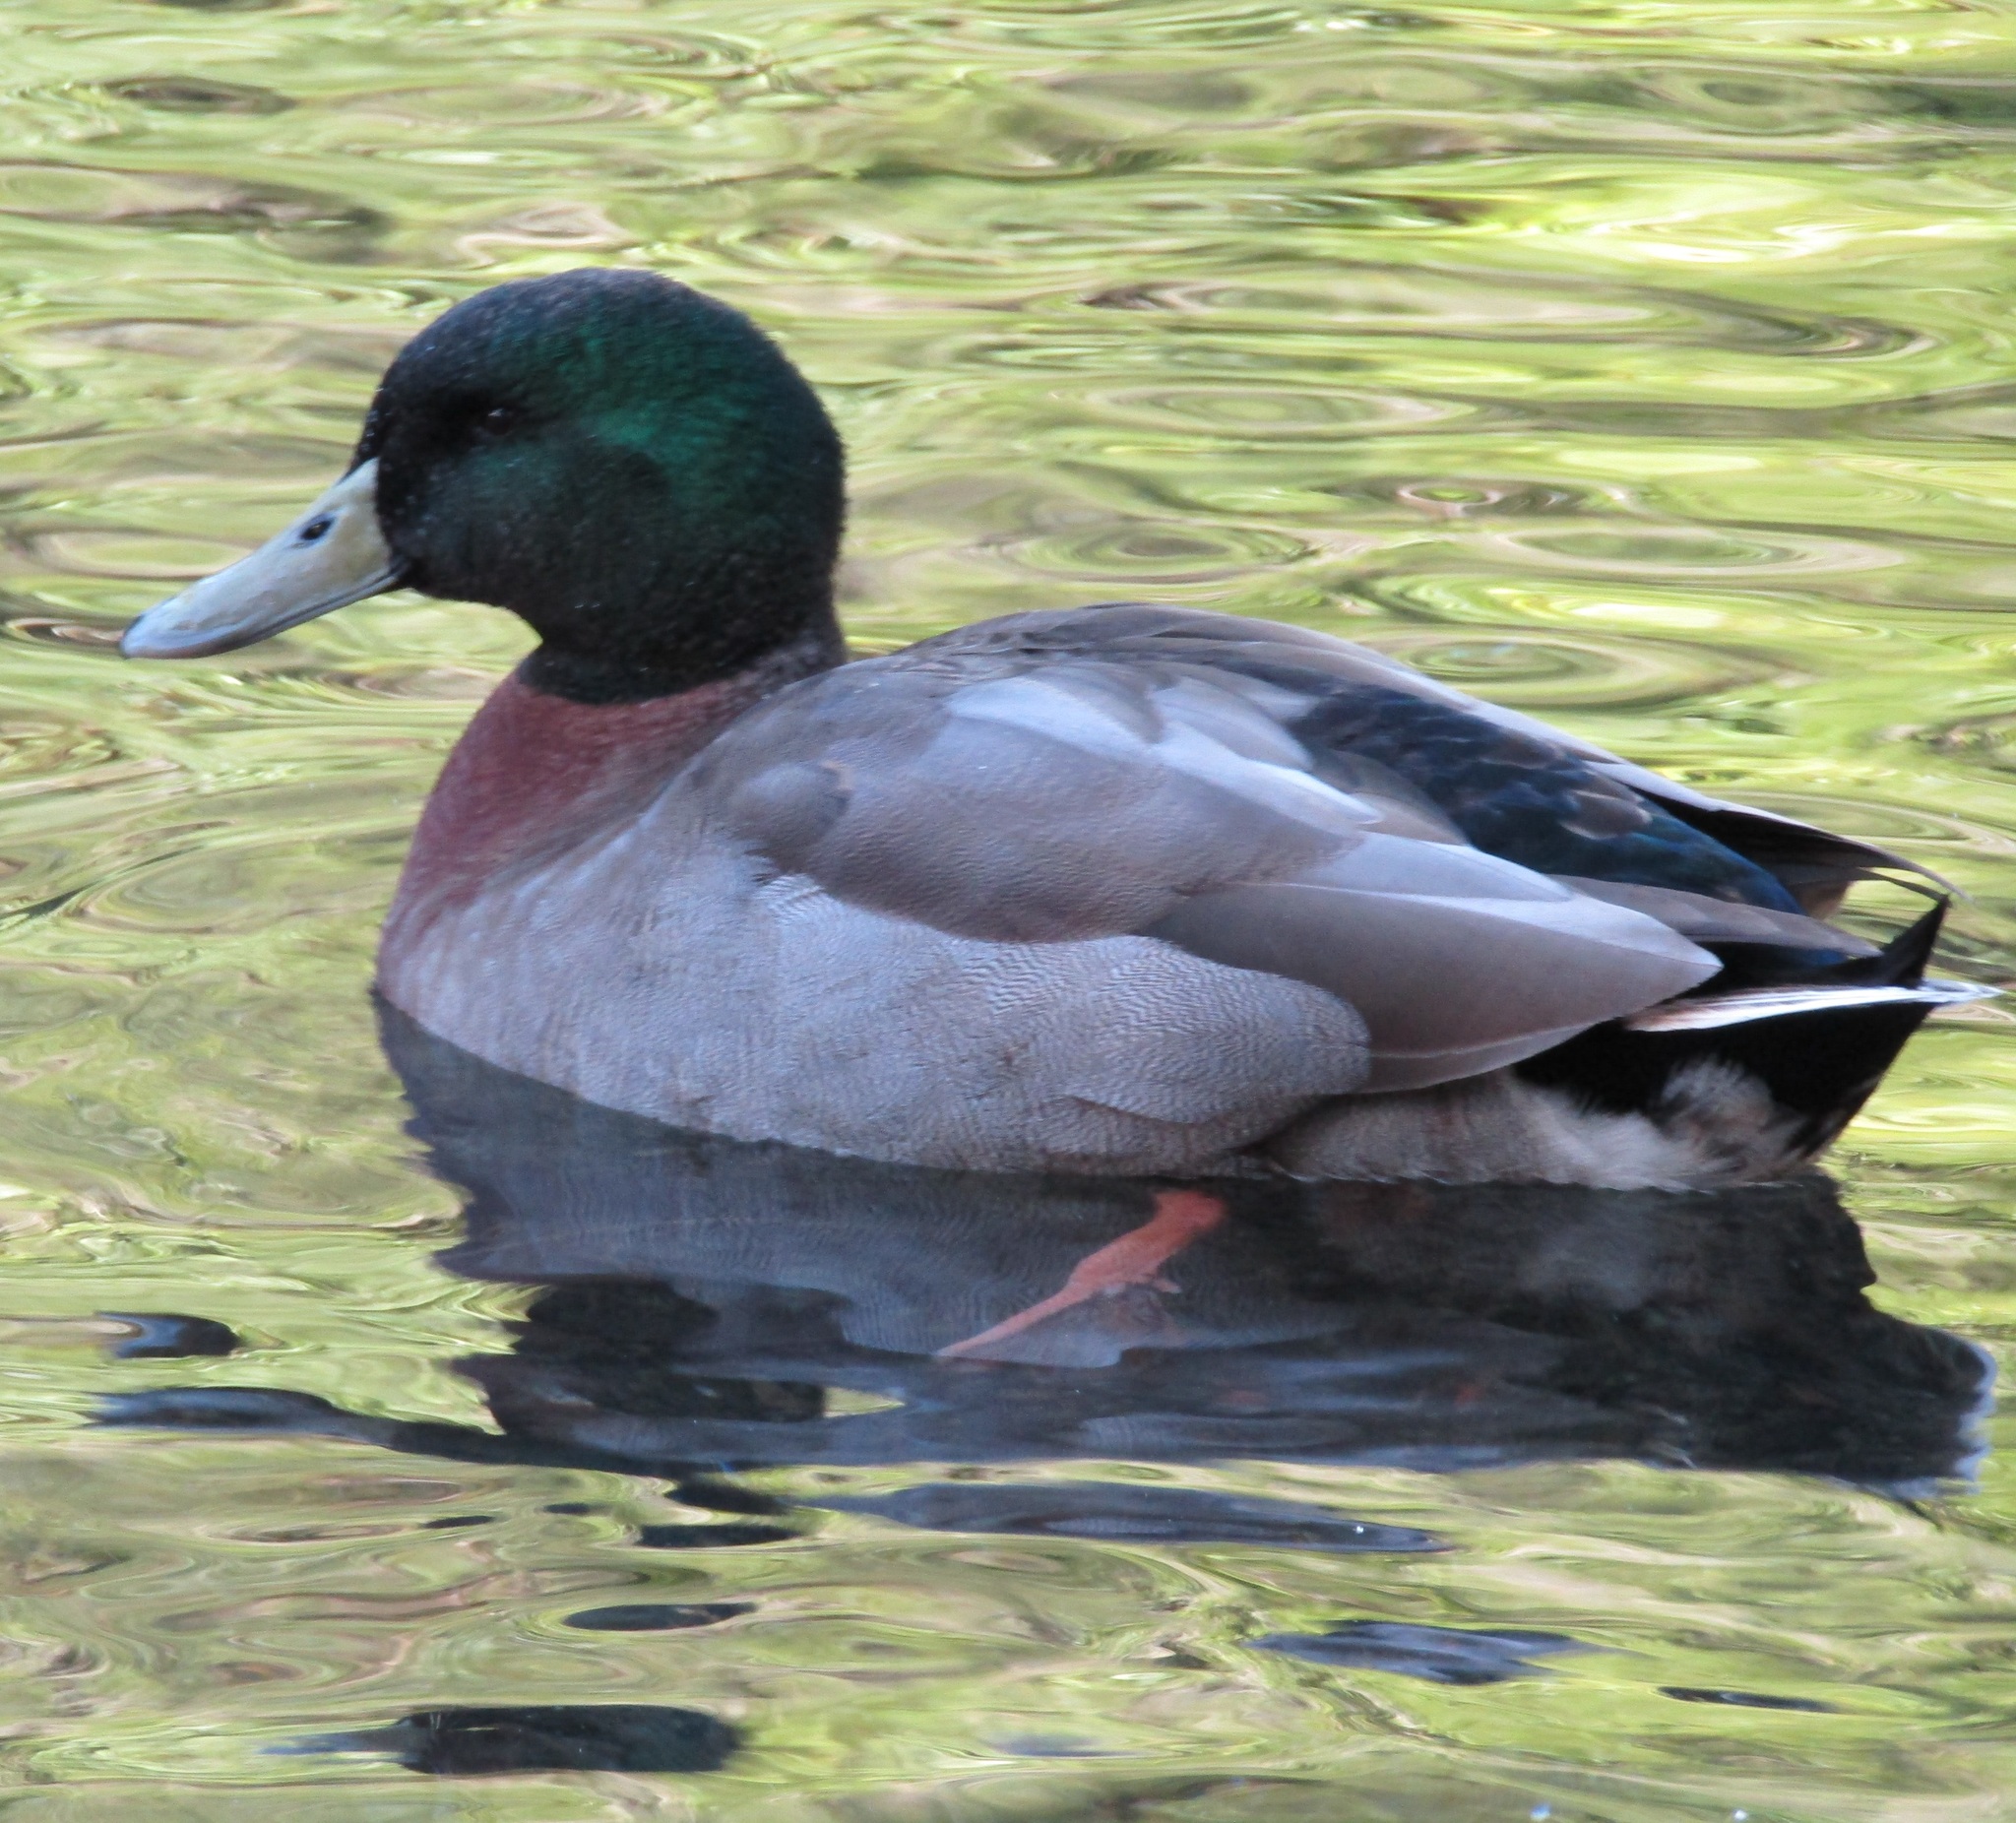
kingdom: Animalia
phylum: Chordata
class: Aves
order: Anseriformes
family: Anatidae
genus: Anas
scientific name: Anas
